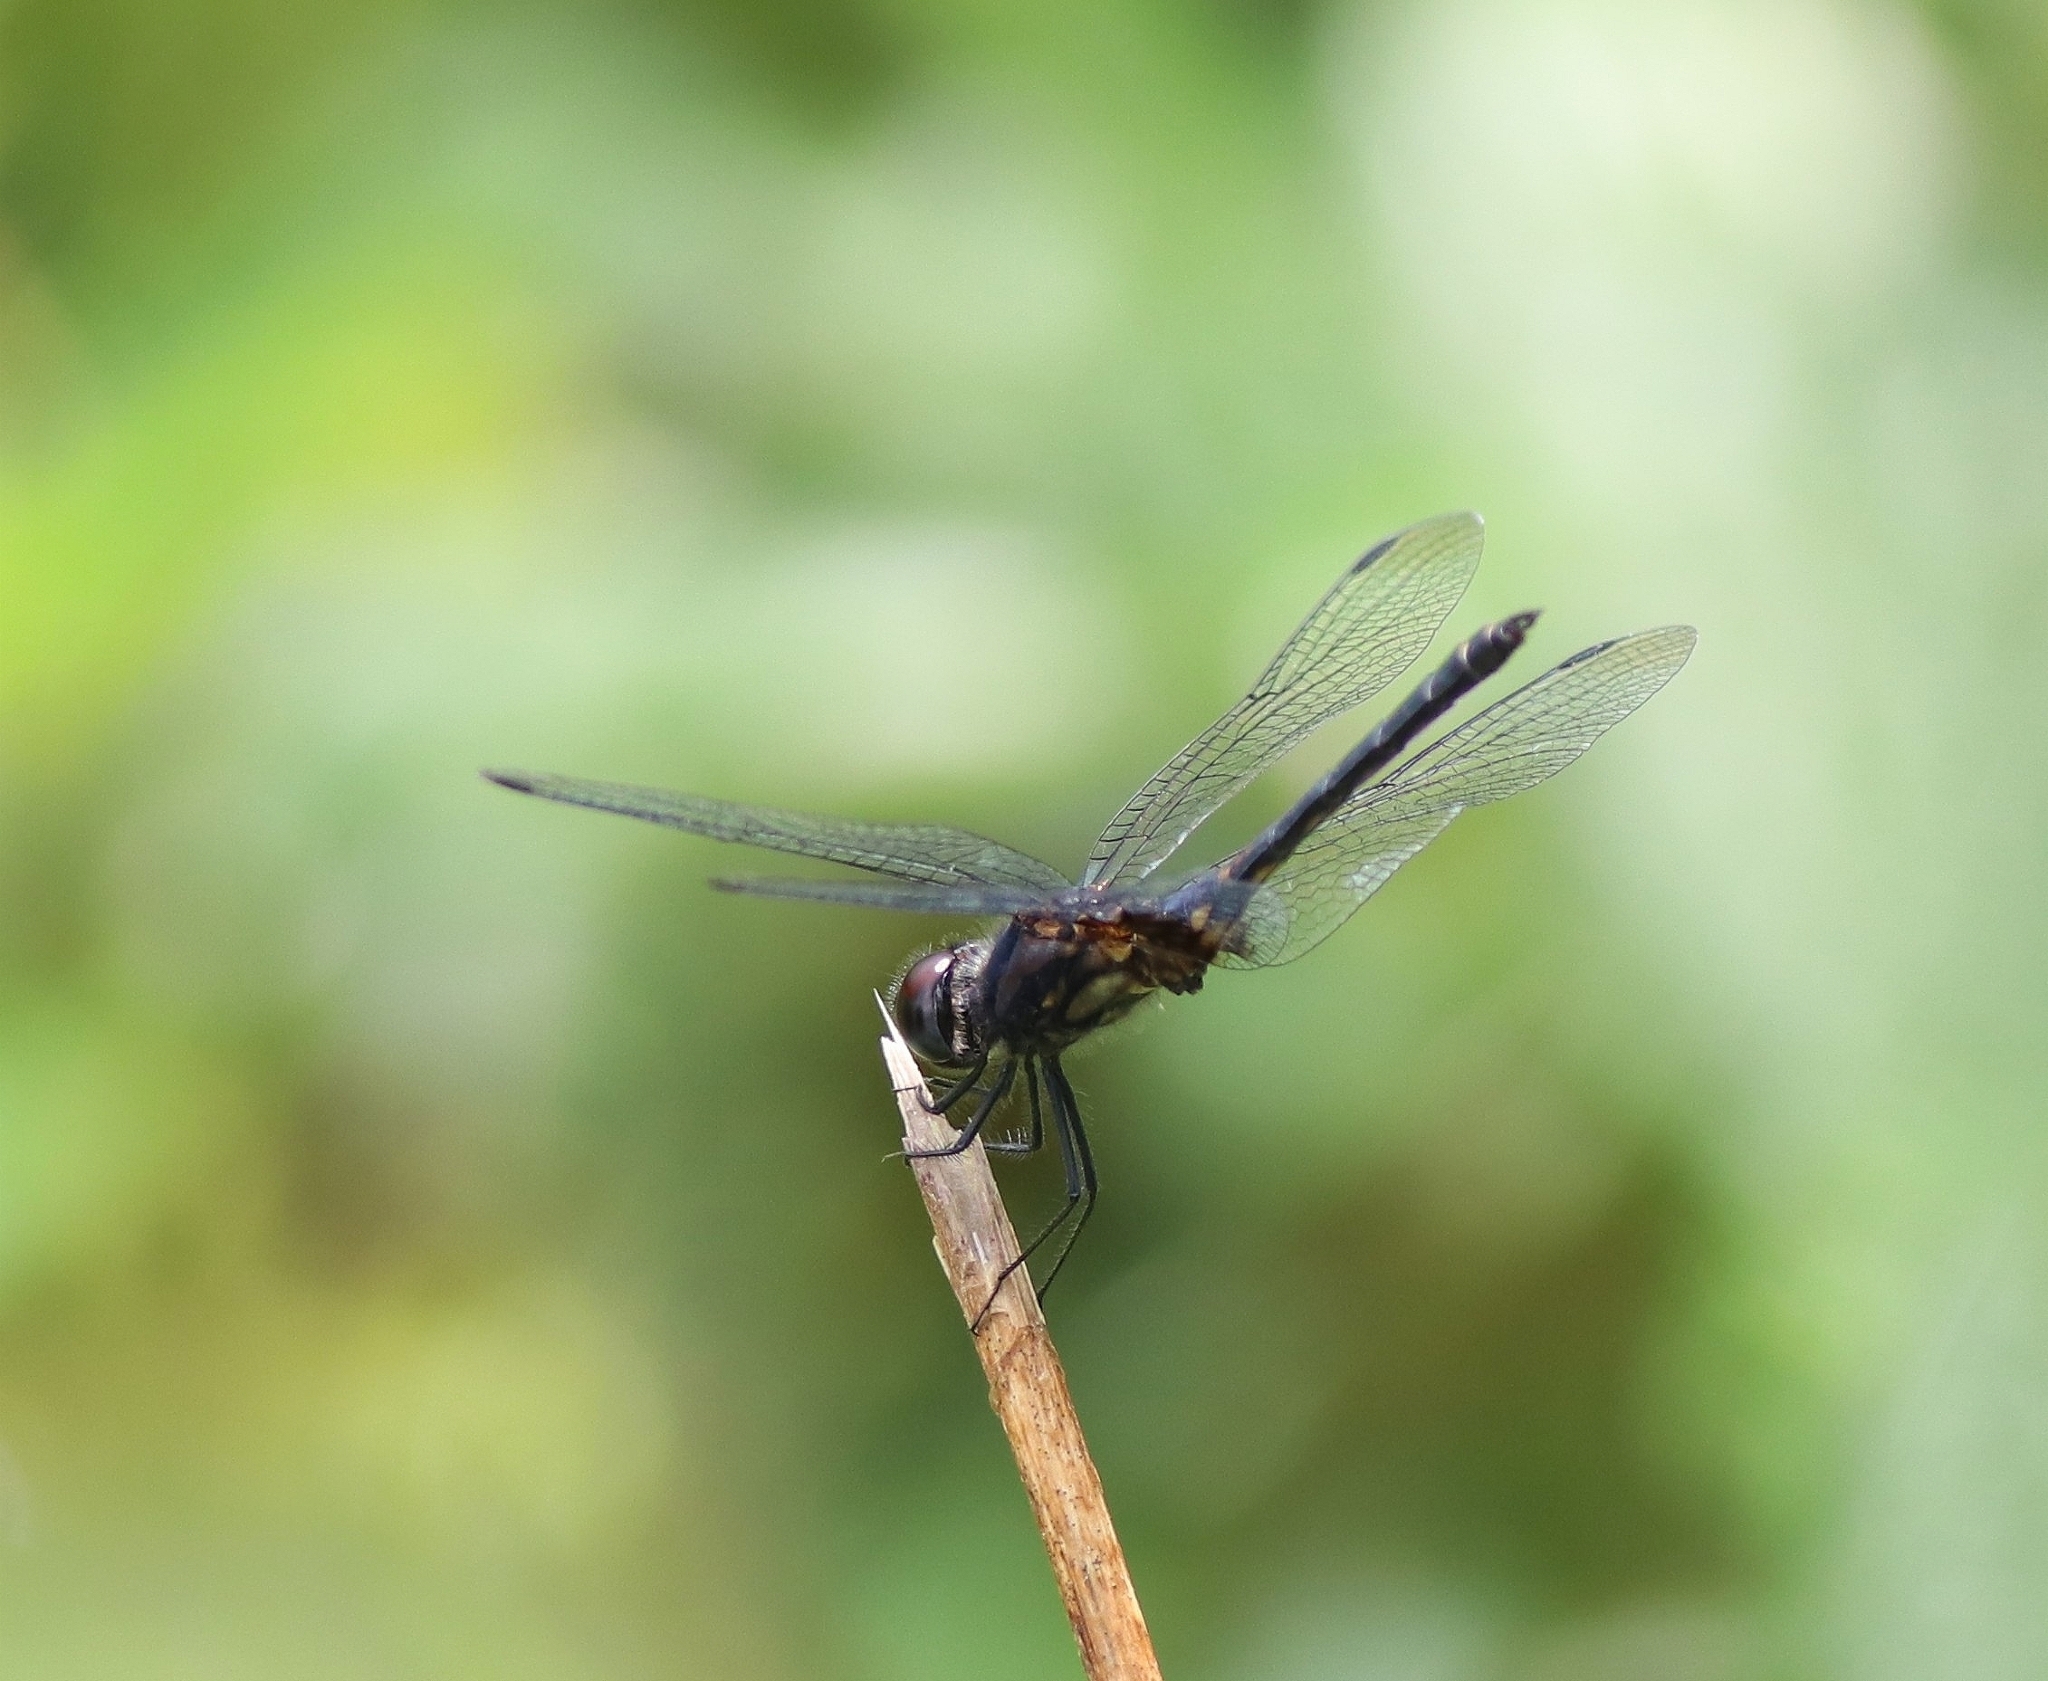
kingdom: Animalia
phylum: Arthropoda
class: Insecta
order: Odonata
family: Libellulidae
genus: Trithemis
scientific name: Trithemis festiva
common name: Indigo dropwing
